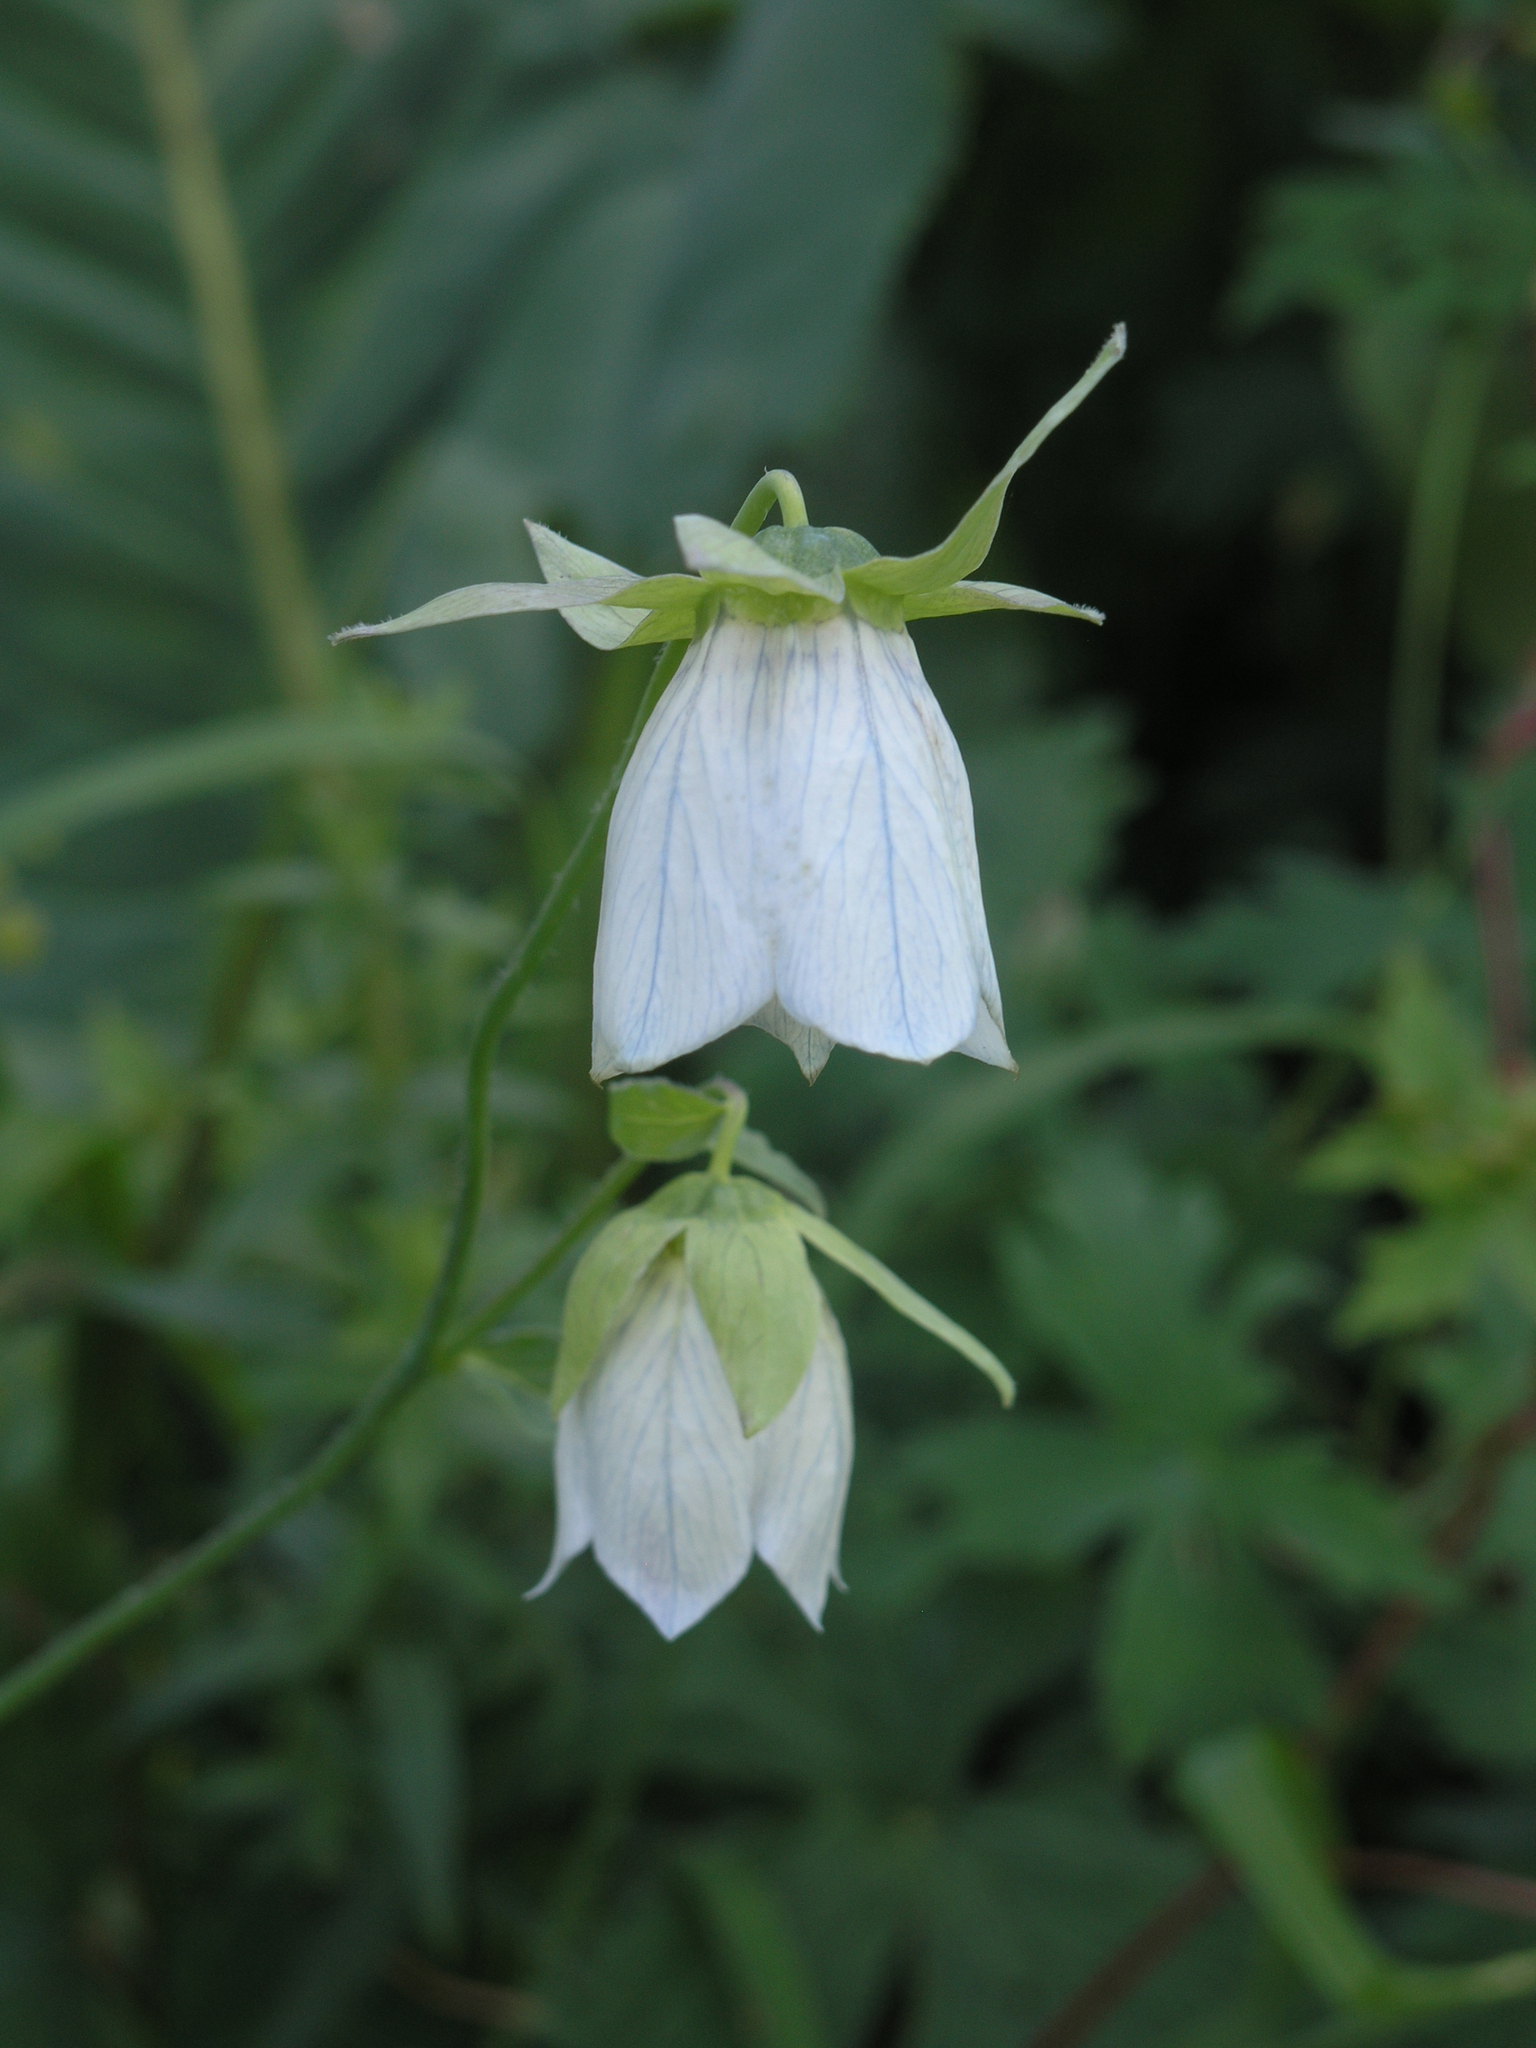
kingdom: Plantae
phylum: Tracheophyta
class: Magnoliopsida
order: Asterales
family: Campanulaceae
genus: Codonopsis
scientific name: Codonopsis clematidea
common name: Bonnet-bellflower
